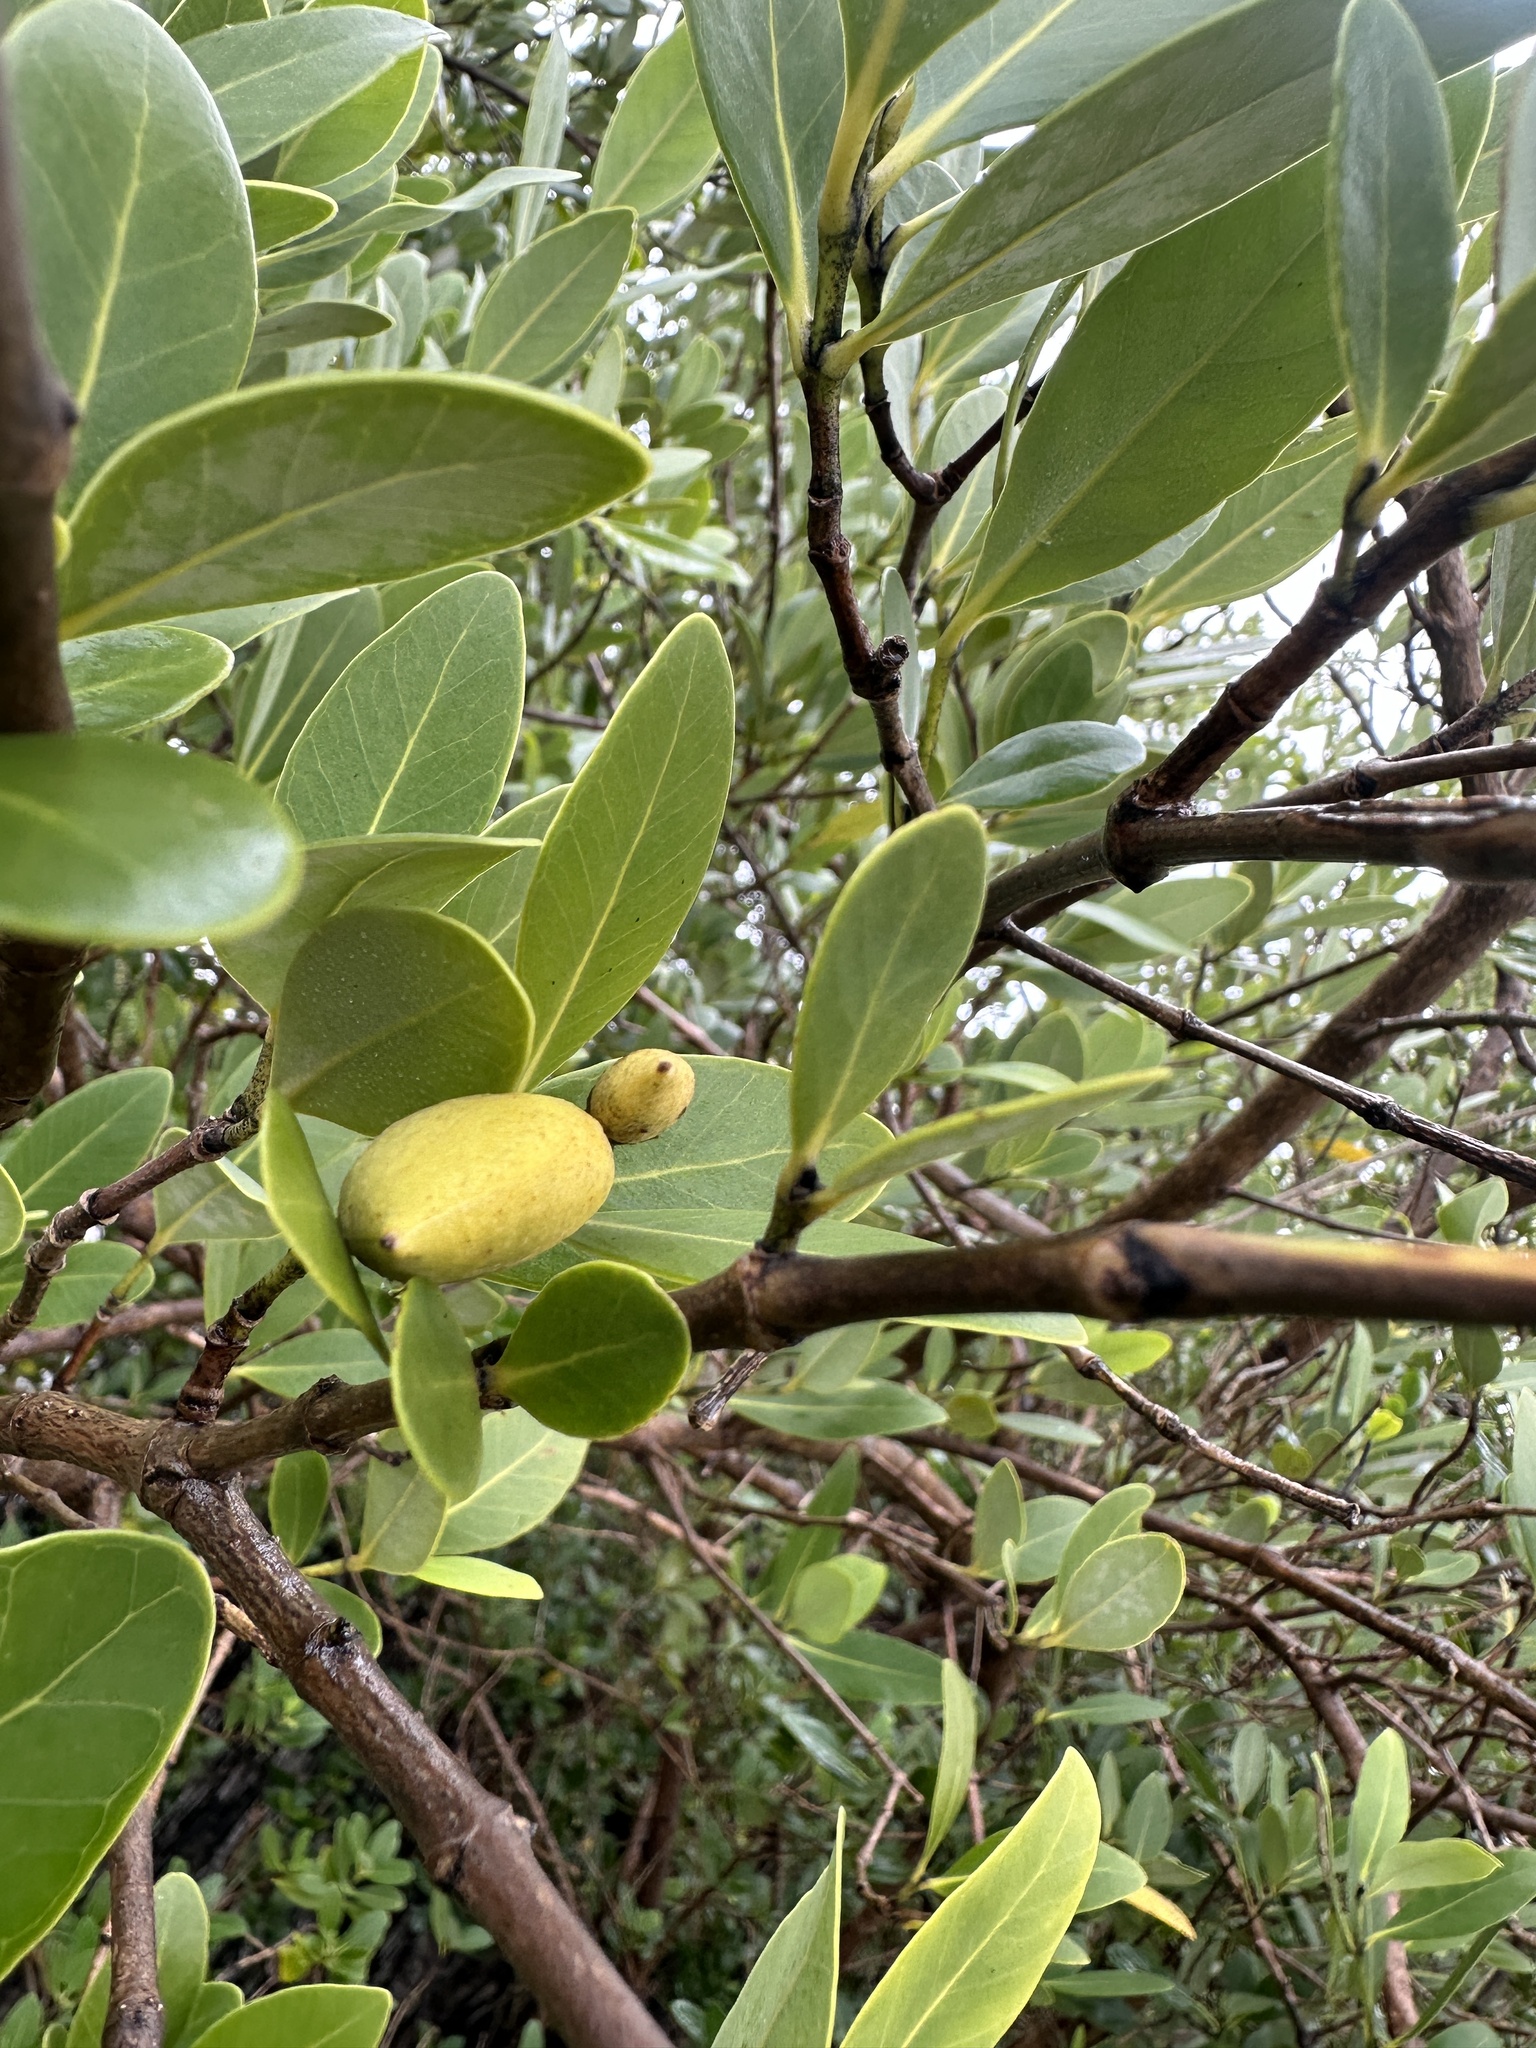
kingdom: Plantae
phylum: Tracheophyta
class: Magnoliopsida
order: Lamiales
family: Acanthaceae
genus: Avicennia
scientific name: Avicennia germinans
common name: Black mangrove
